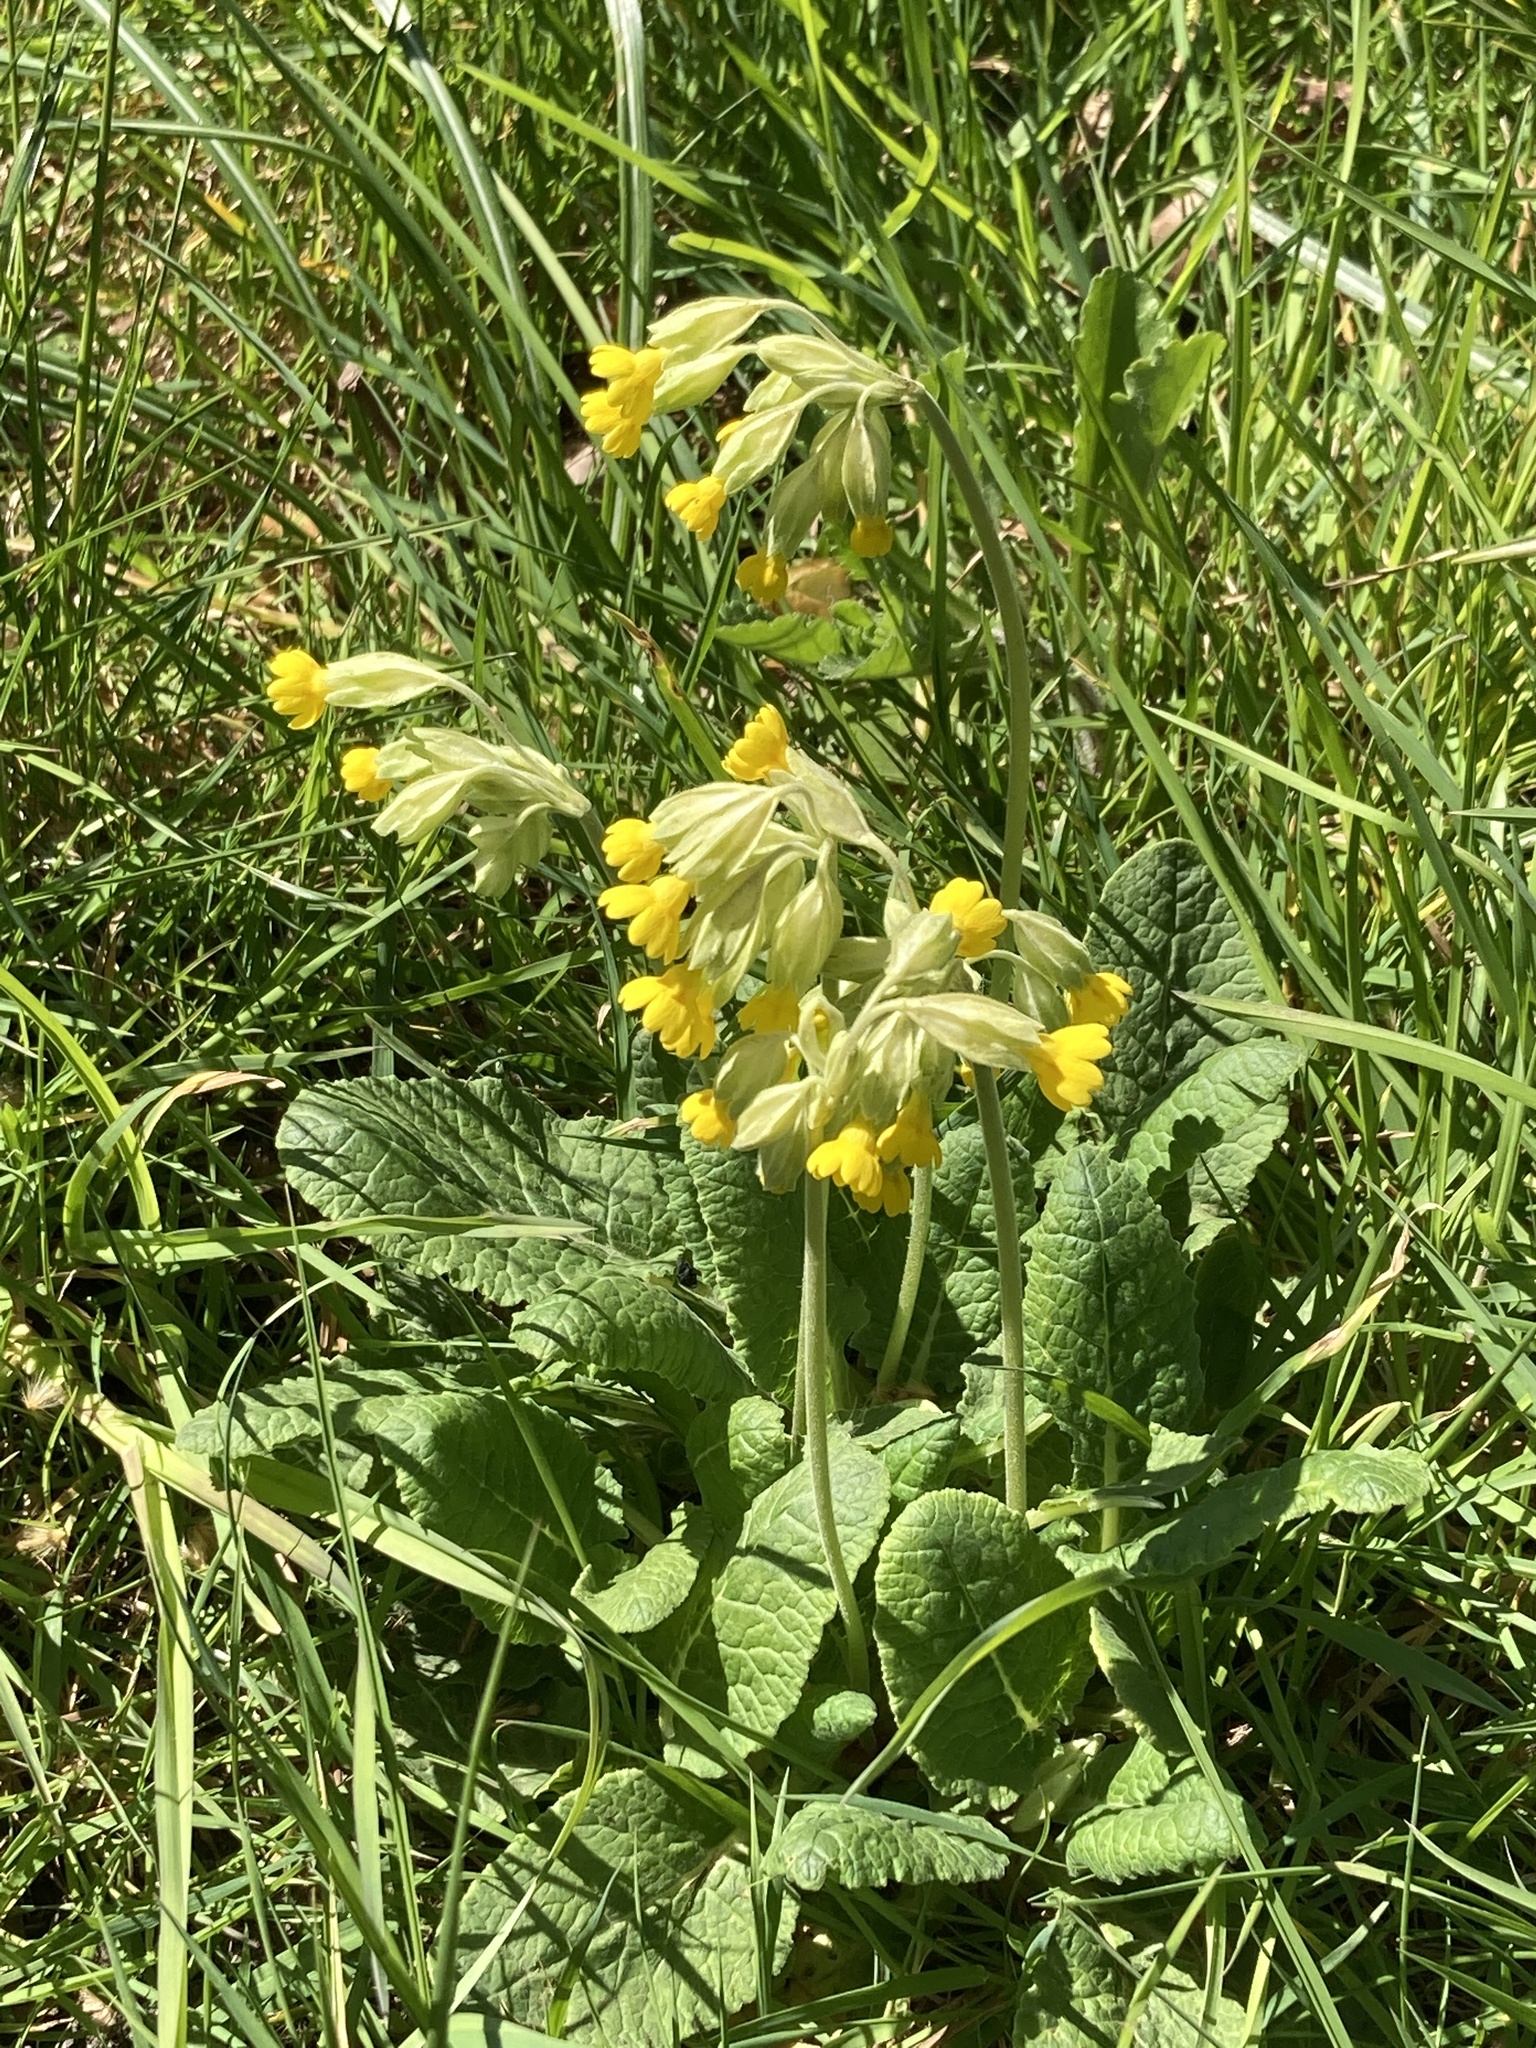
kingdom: Plantae
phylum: Tracheophyta
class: Magnoliopsida
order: Ericales
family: Primulaceae
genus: Primula
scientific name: Primula veris
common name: Cowslip
